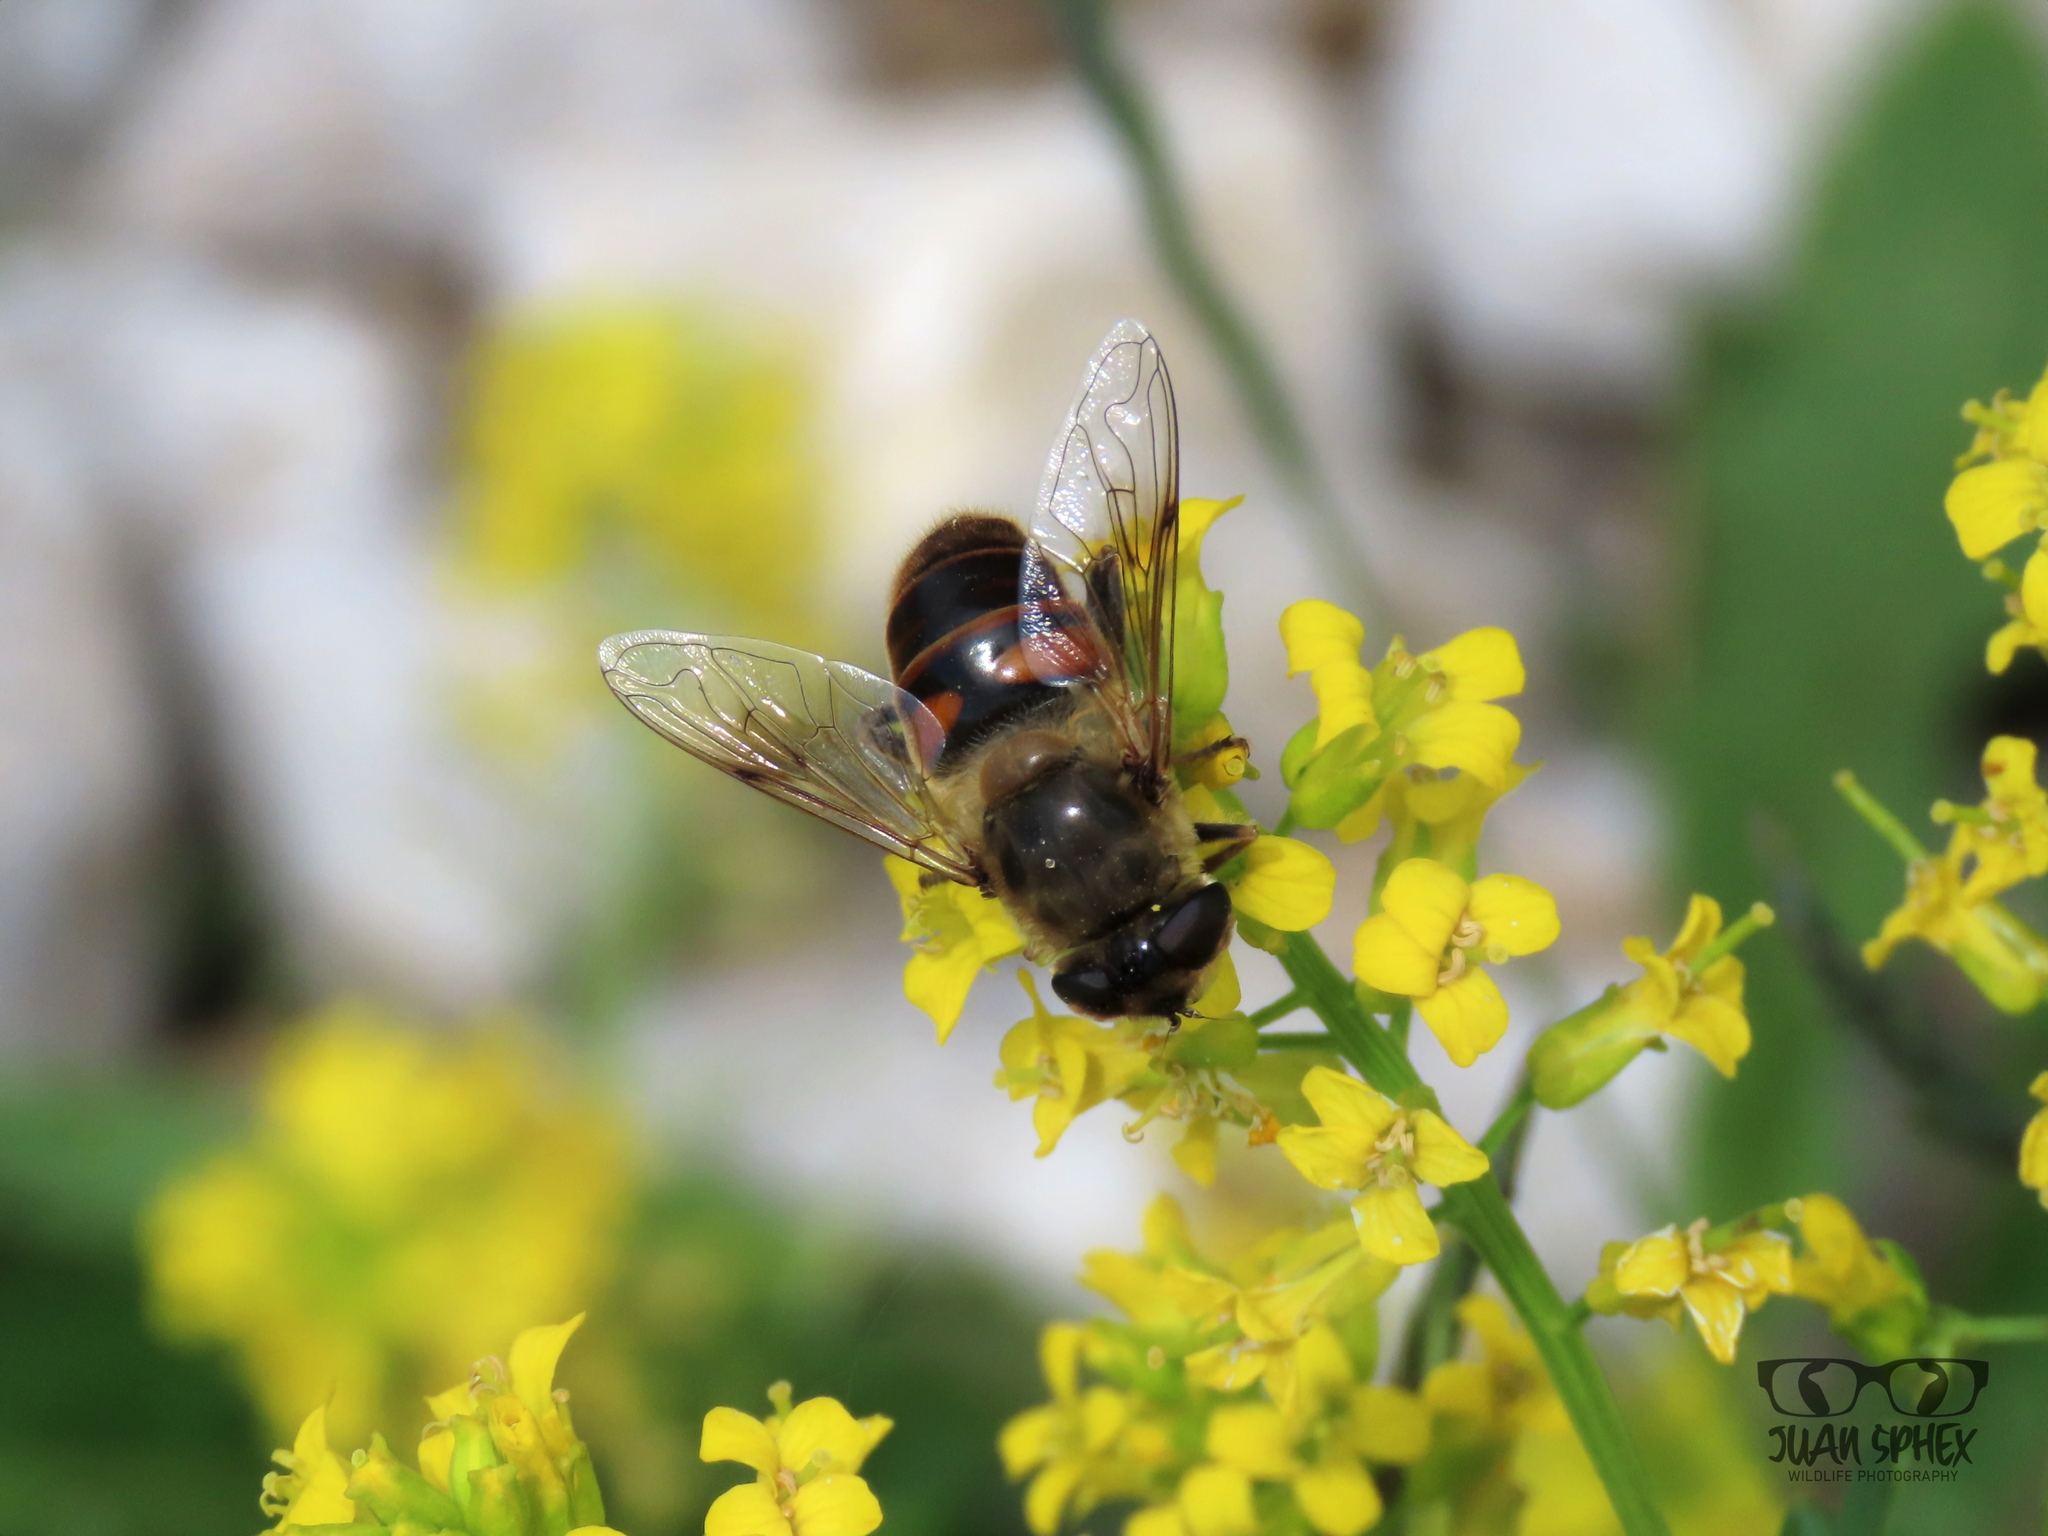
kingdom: Animalia
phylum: Arthropoda
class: Insecta
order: Diptera
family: Syrphidae
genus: Eristalis
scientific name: Eristalis tenax
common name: Drone fly
